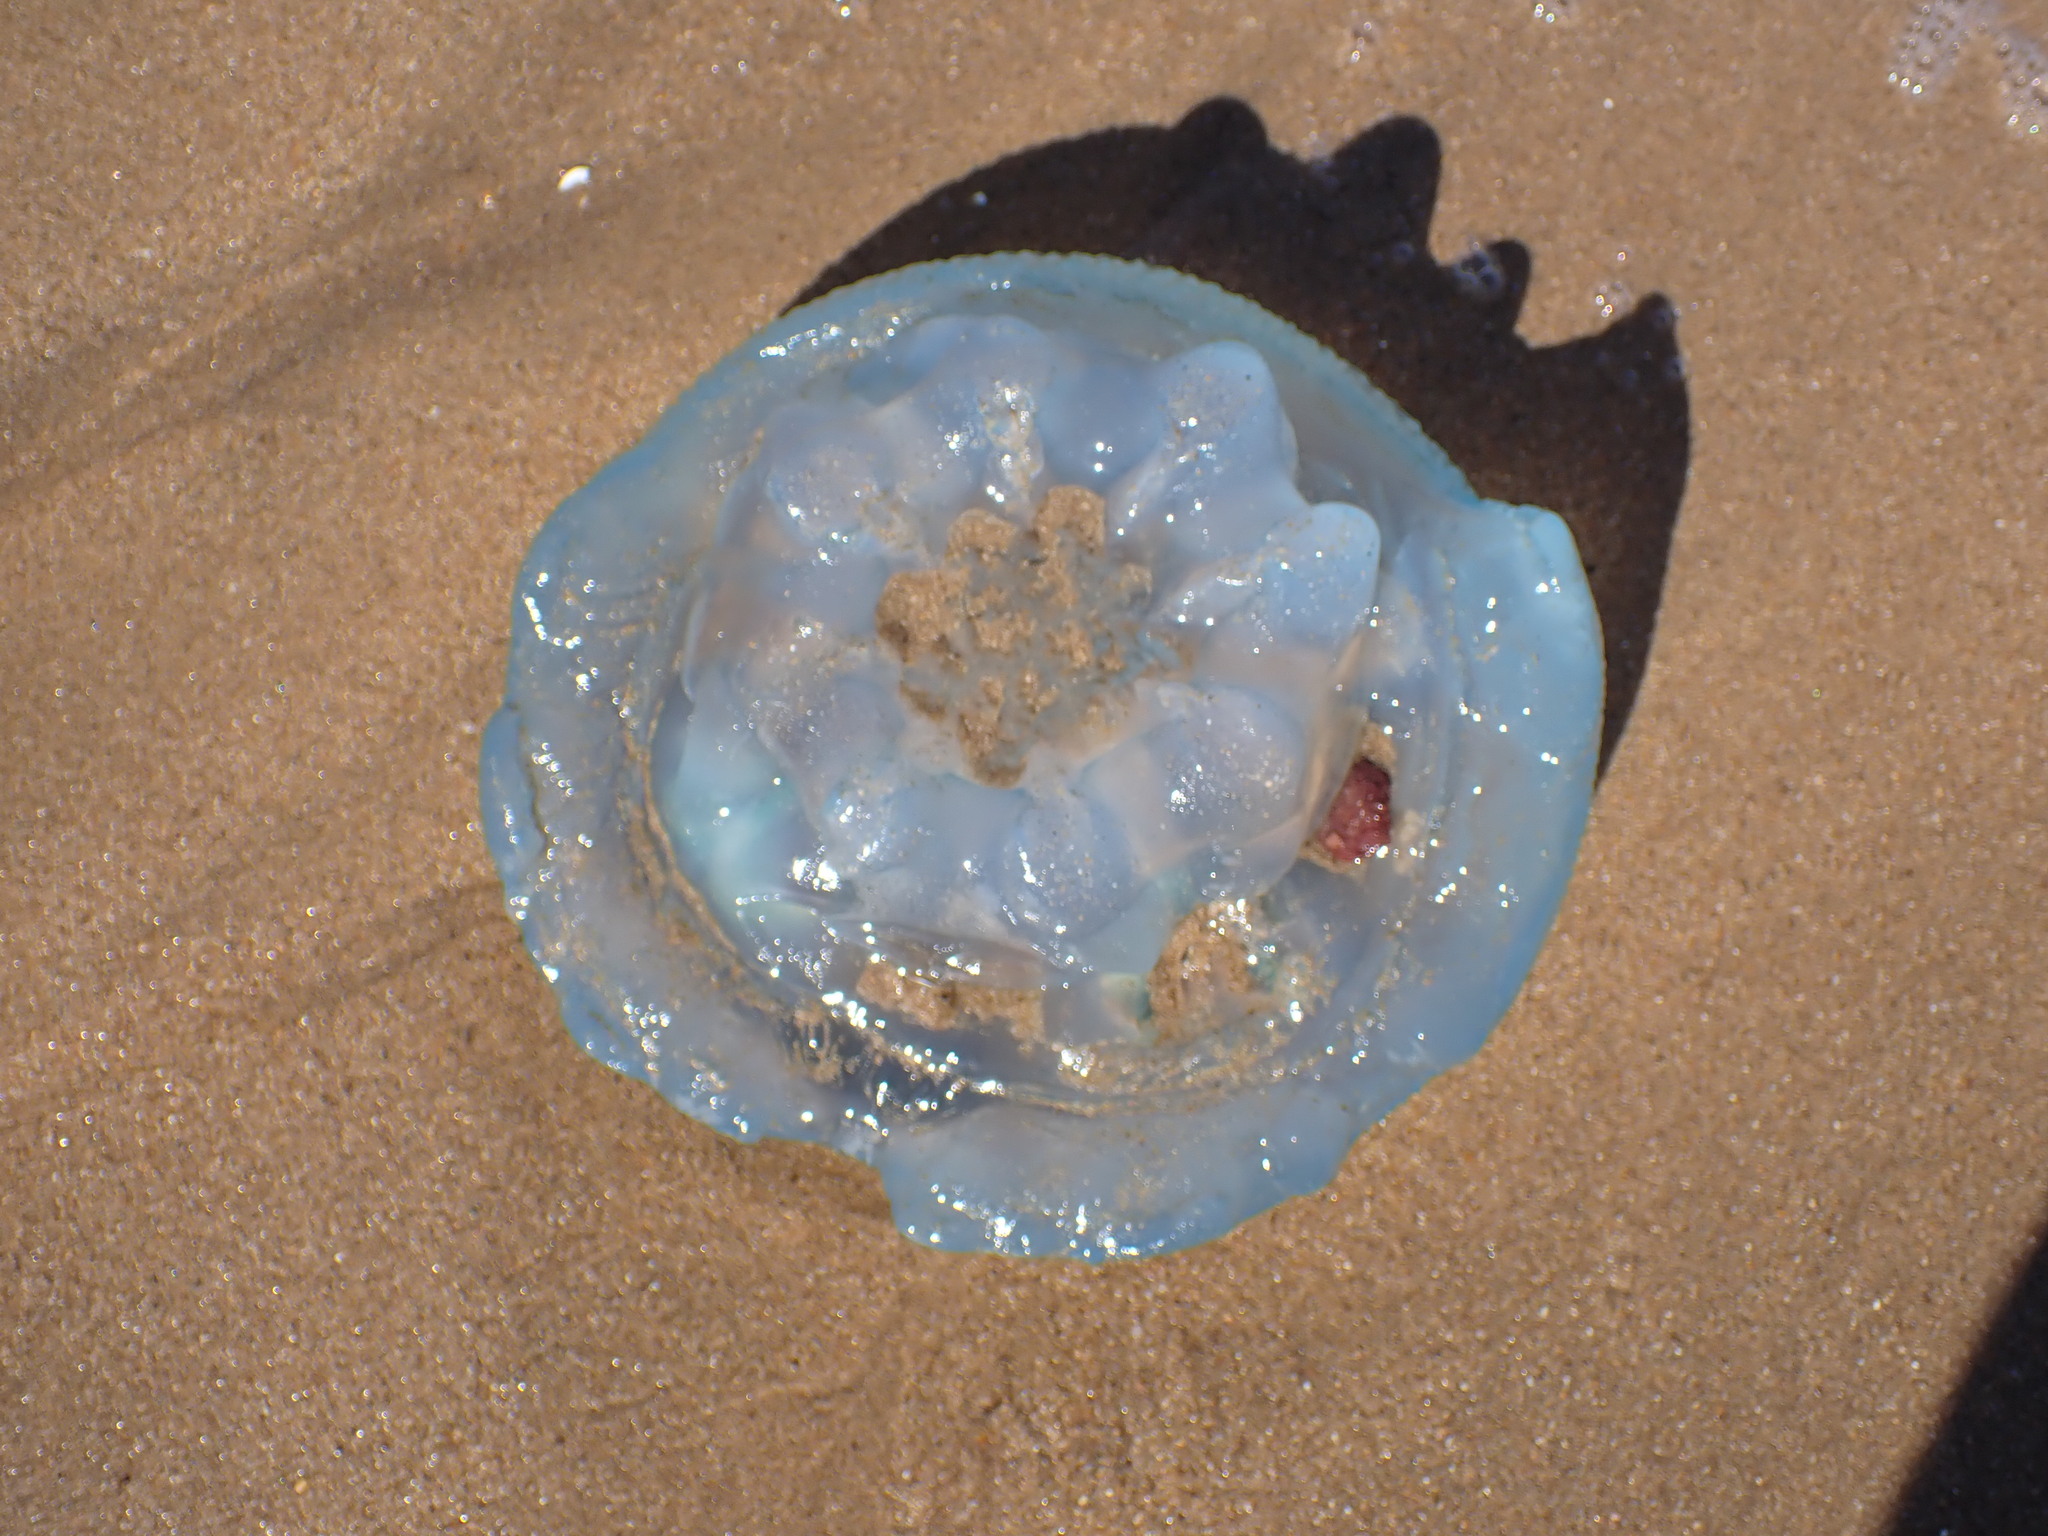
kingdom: Animalia
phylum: Cnidaria
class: Scyphozoa
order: Rhizostomeae
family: Catostylidae
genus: Catostylus
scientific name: Catostylus mosaicus
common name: Blue blubber
